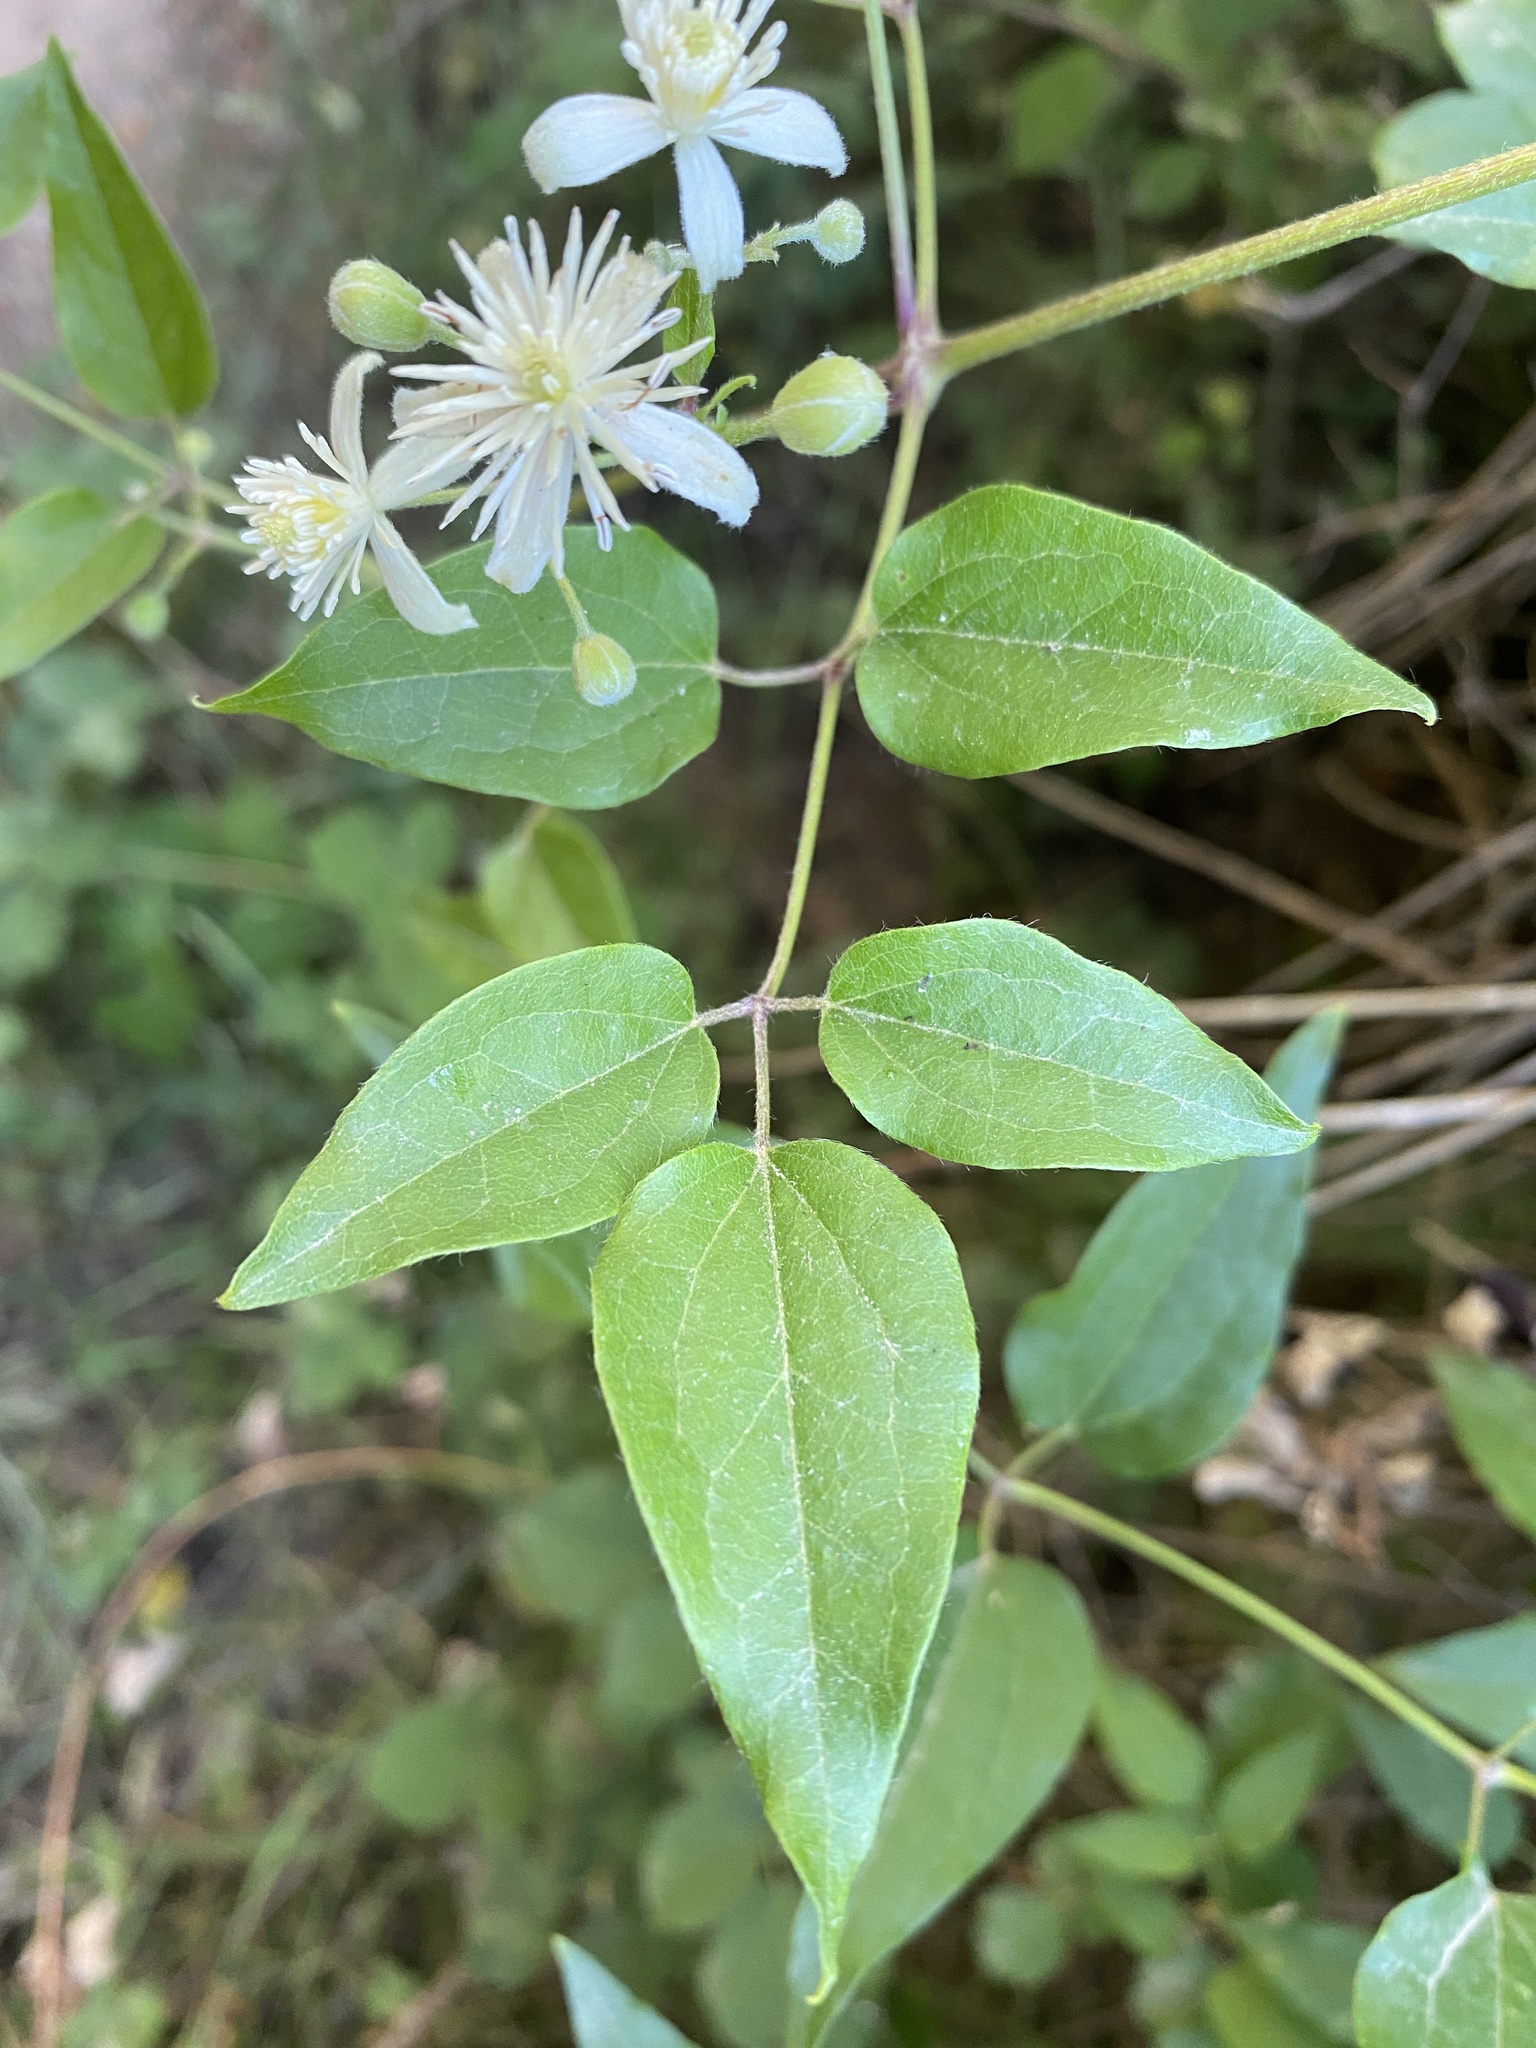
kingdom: Plantae
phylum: Tracheophyta
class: Magnoliopsida
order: Ranunculales
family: Ranunculaceae
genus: Clematis
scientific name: Clematis vitalba
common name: Evergreen clematis
